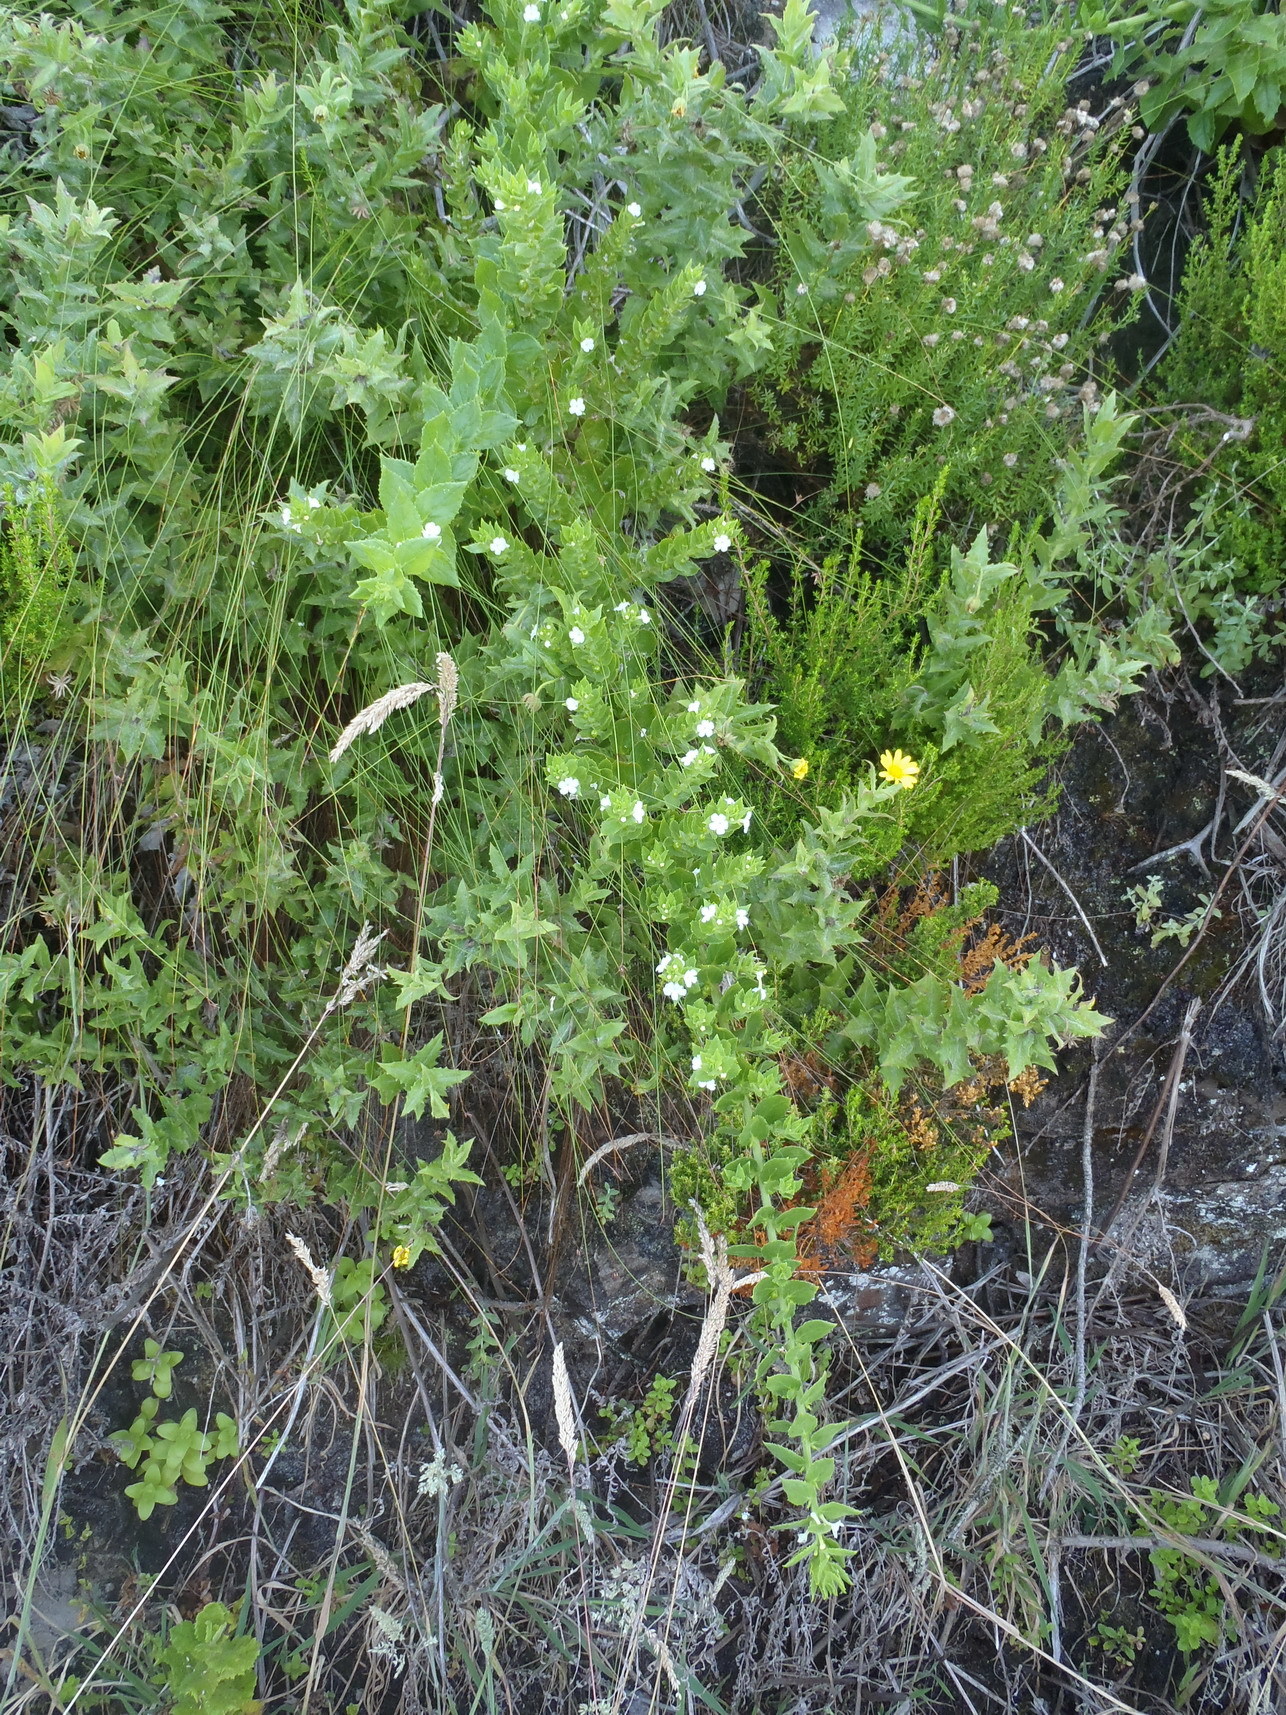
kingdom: Plantae
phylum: Tracheophyta
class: Magnoliopsida
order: Lamiales
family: Scrophulariaceae
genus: Oftia
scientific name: Oftia africana
